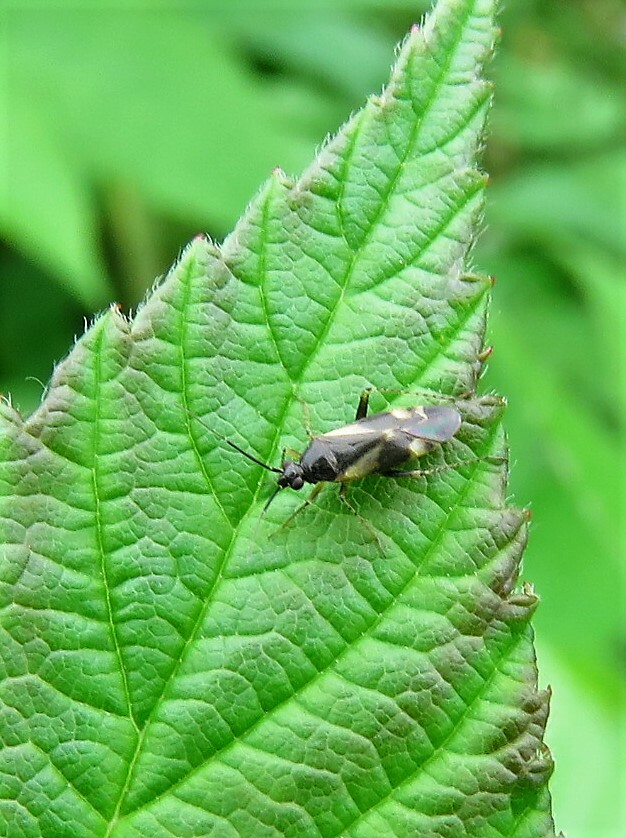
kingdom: Animalia
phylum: Arthropoda
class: Insecta
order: Hemiptera
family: Miridae
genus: Plagiognathus
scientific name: Plagiognathus obscurus
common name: Obscure plant bug
